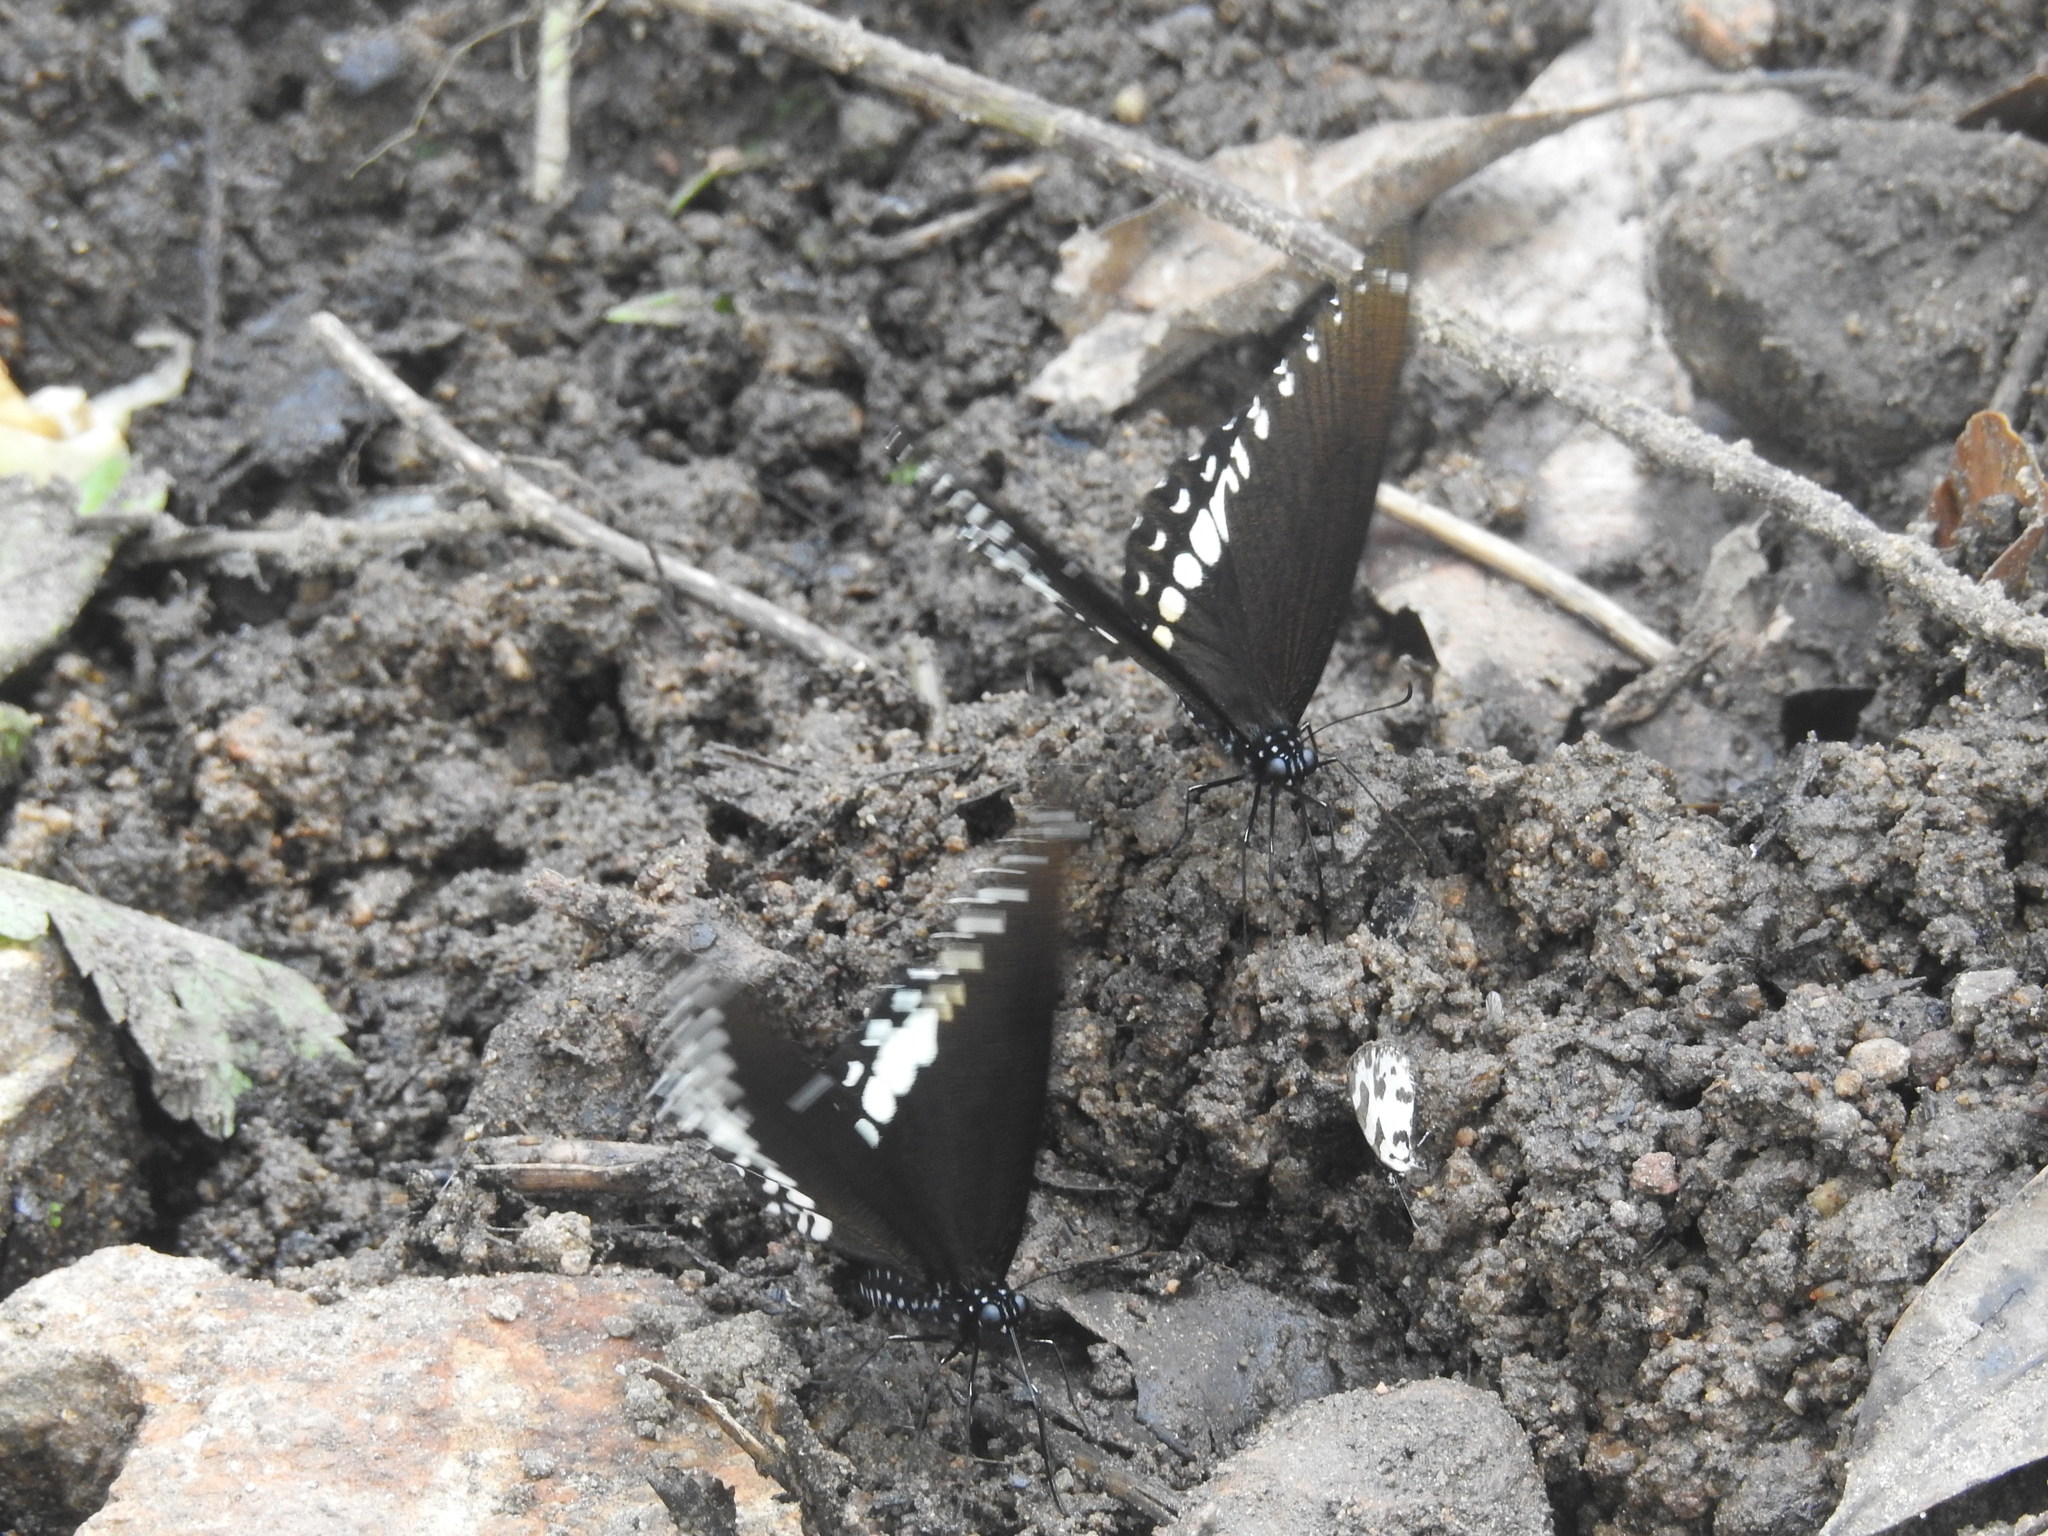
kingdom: Animalia
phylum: Arthropoda
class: Insecta
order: Lepidoptera
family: Papilionidae
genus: Papilio
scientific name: Papilio dravidarum
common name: Malabar raven
